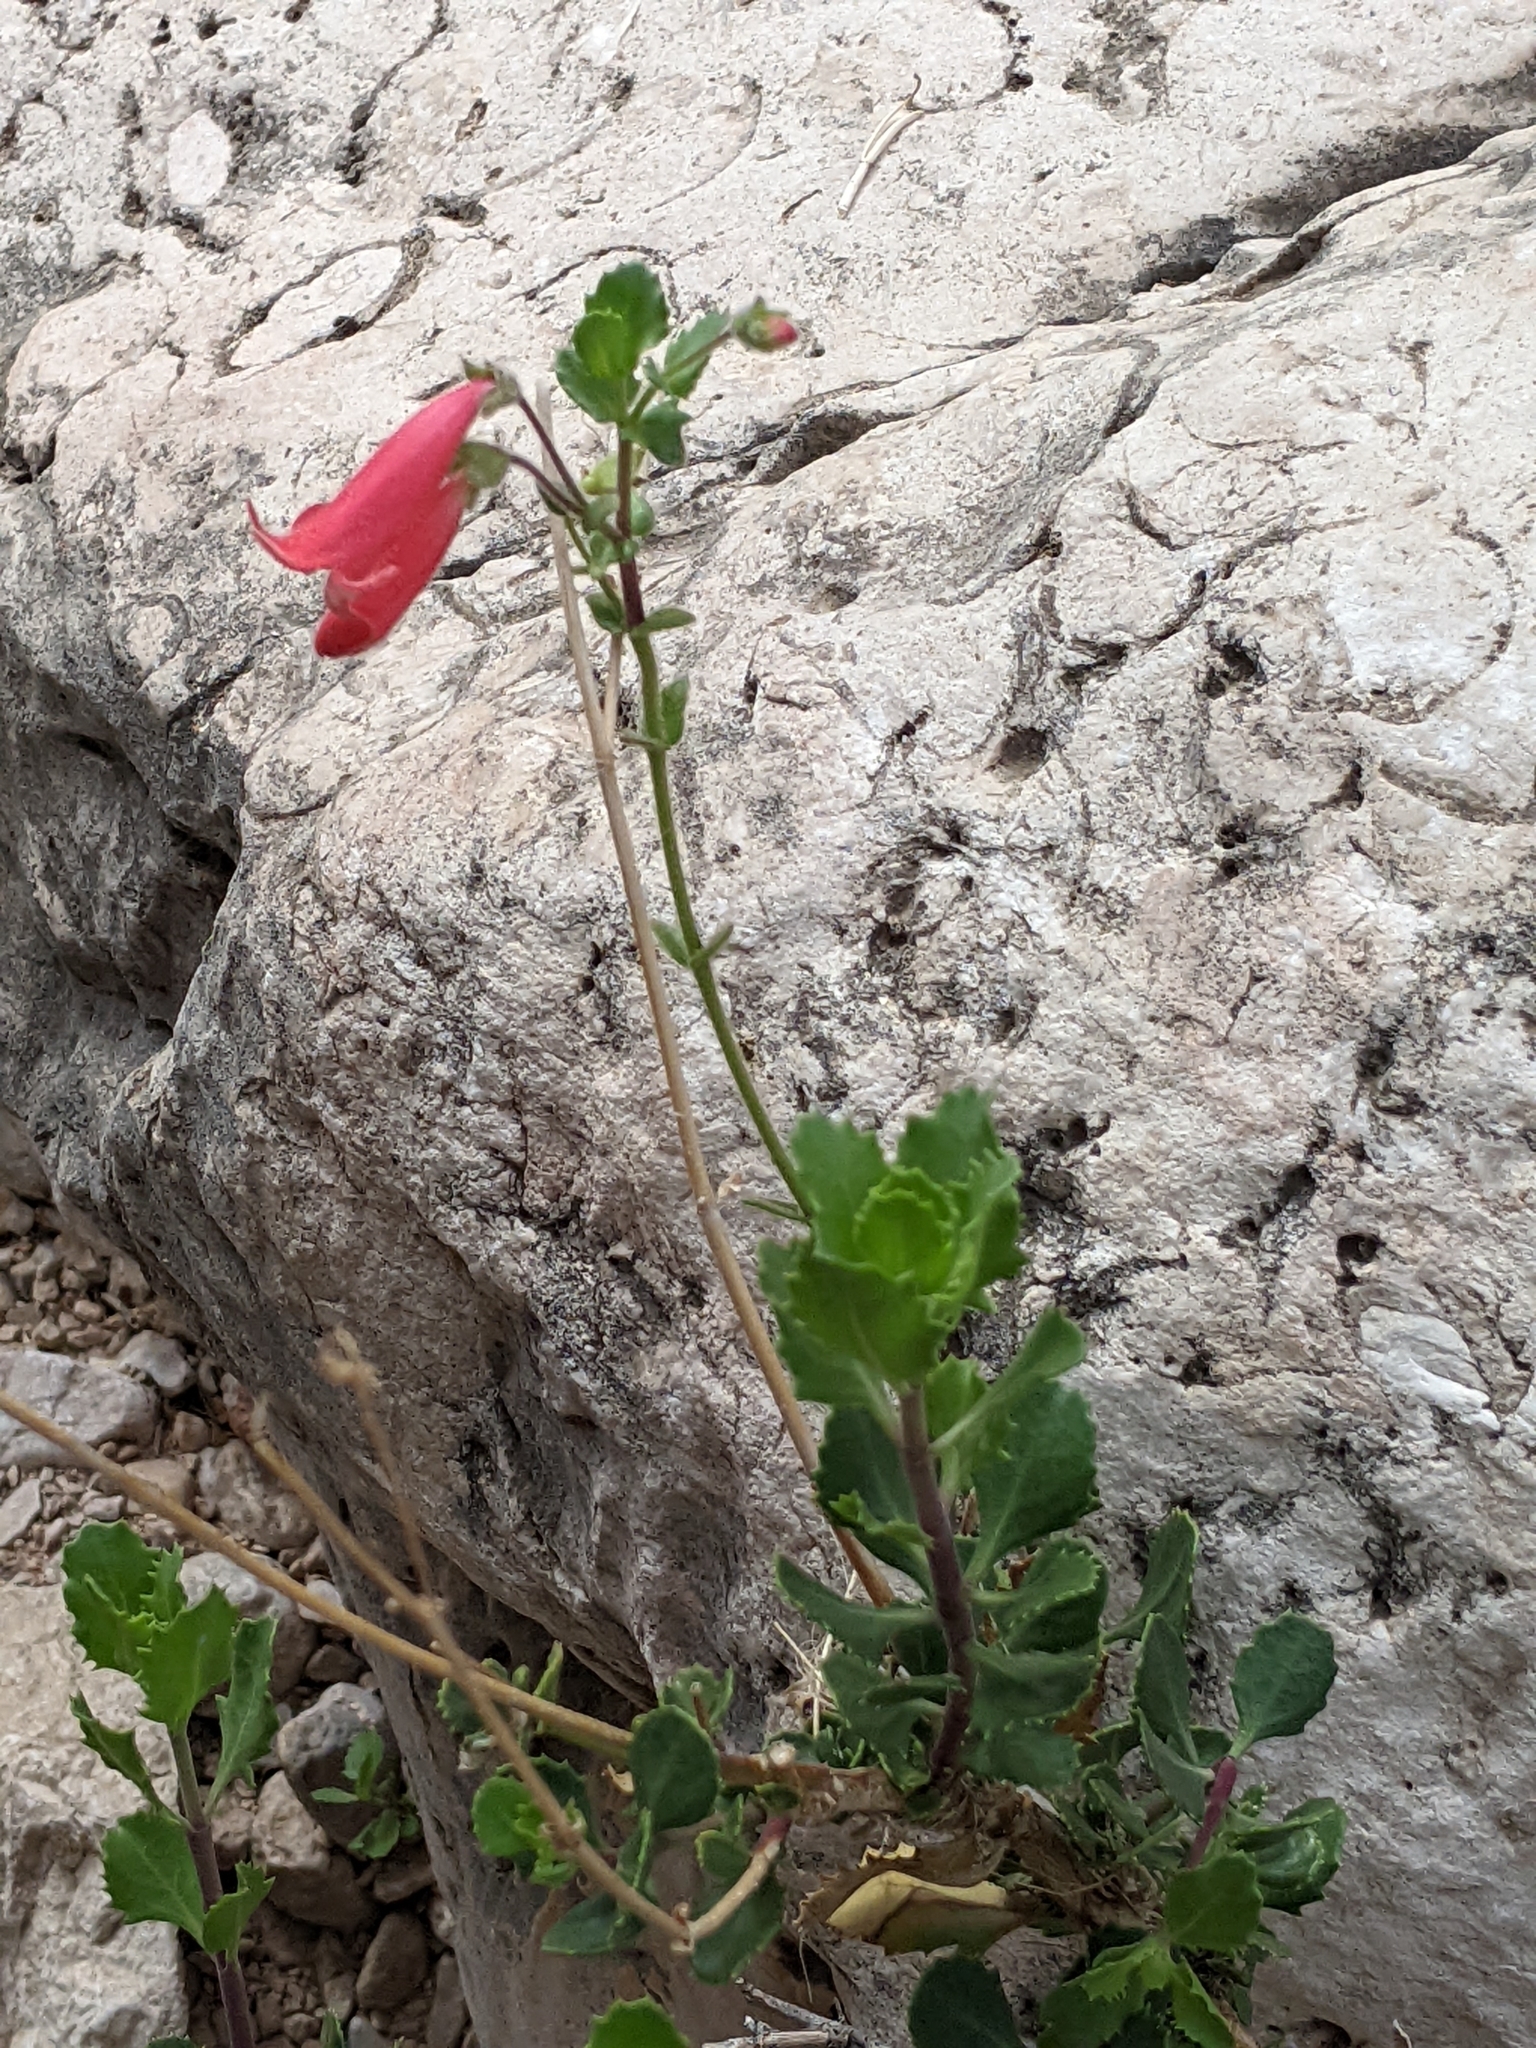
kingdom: Plantae
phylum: Tracheophyta
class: Magnoliopsida
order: Lamiales
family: Plantaginaceae
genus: Penstemon
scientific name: Penstemon baccharifolius
